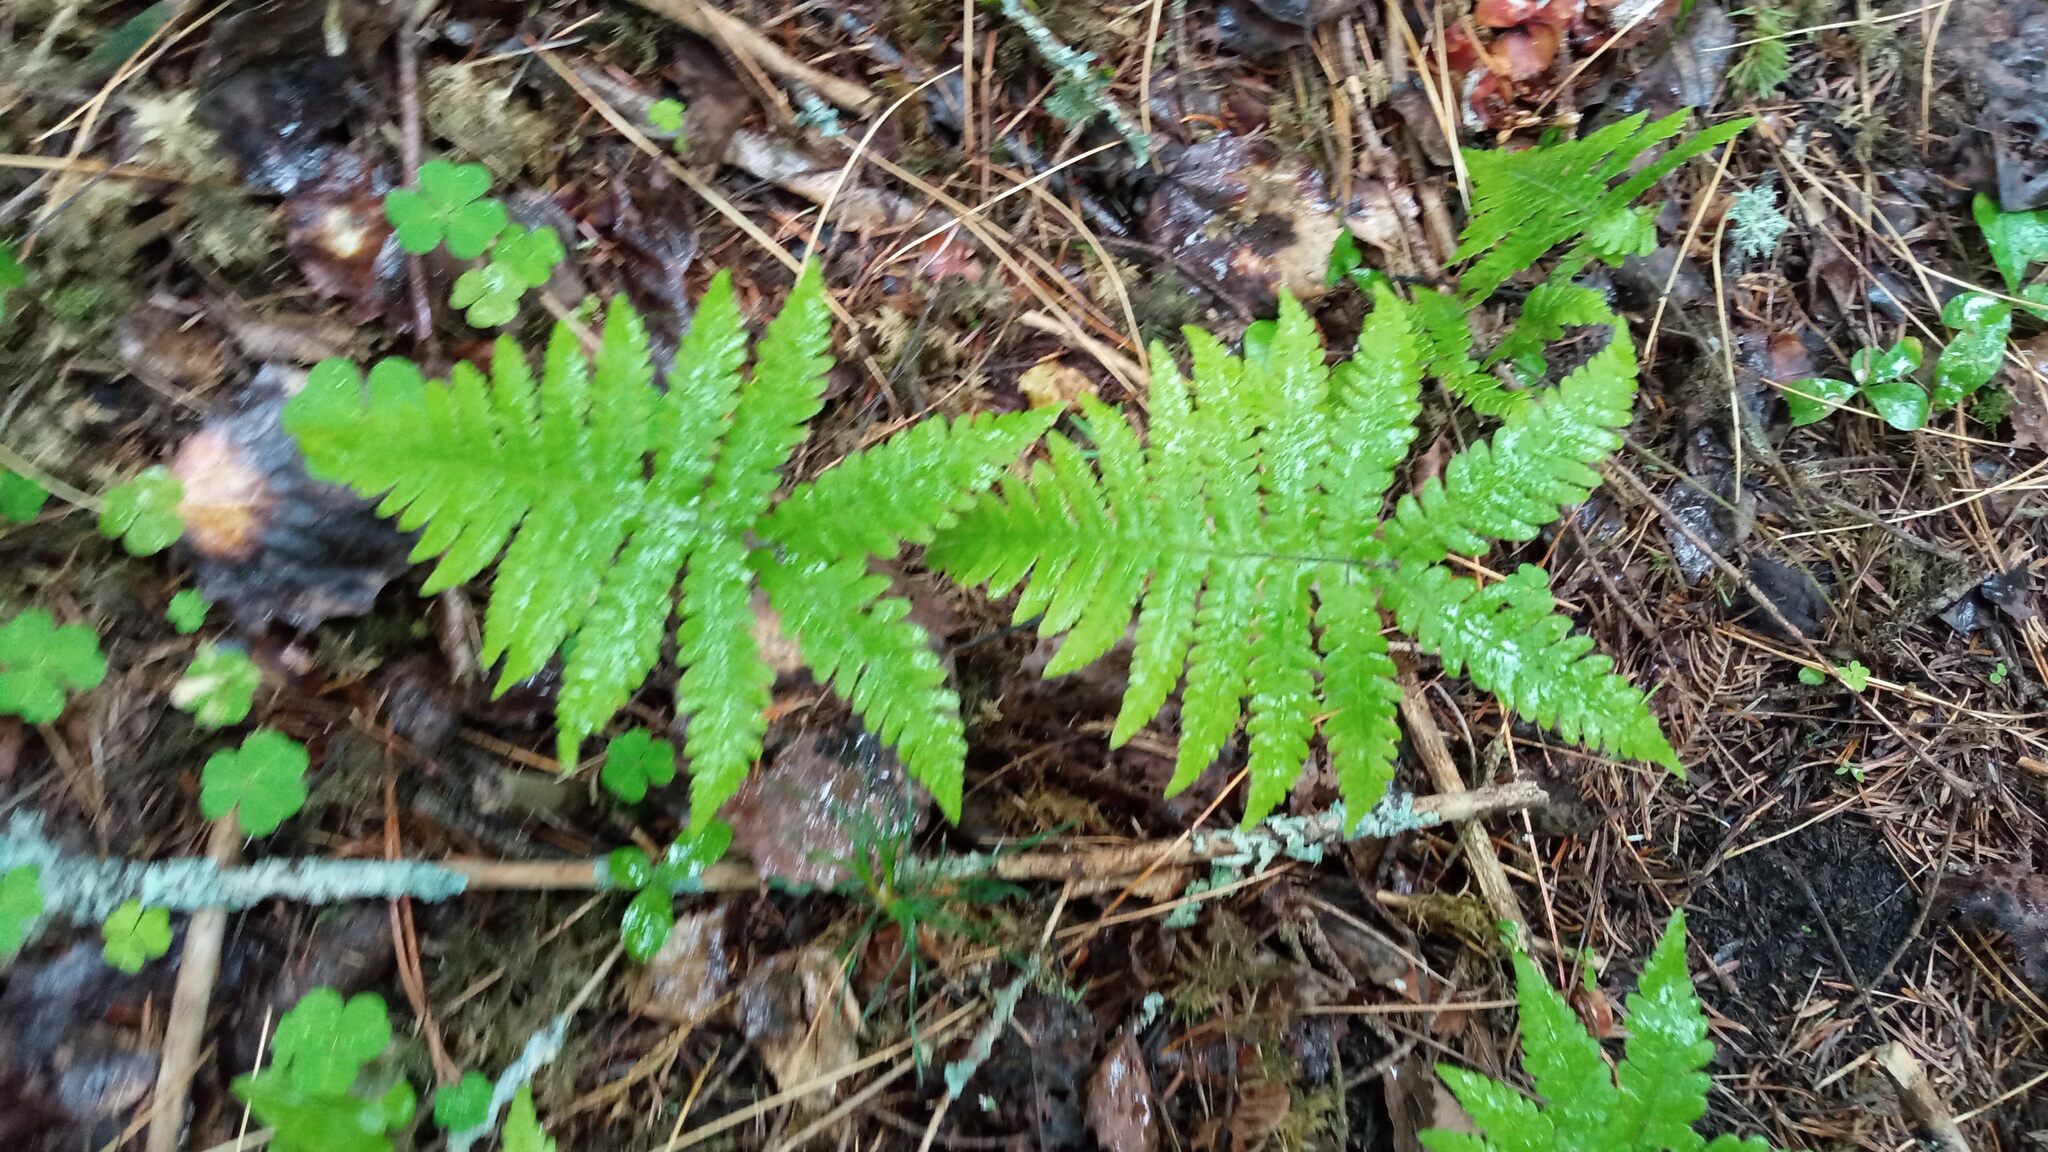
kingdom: Plantae
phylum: Tracheophyta
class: Polypodiopsida
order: Polypodiales
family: Thelypteridaceae
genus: Phegopteris
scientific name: Phegopteris connectilis
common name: Beech fern
